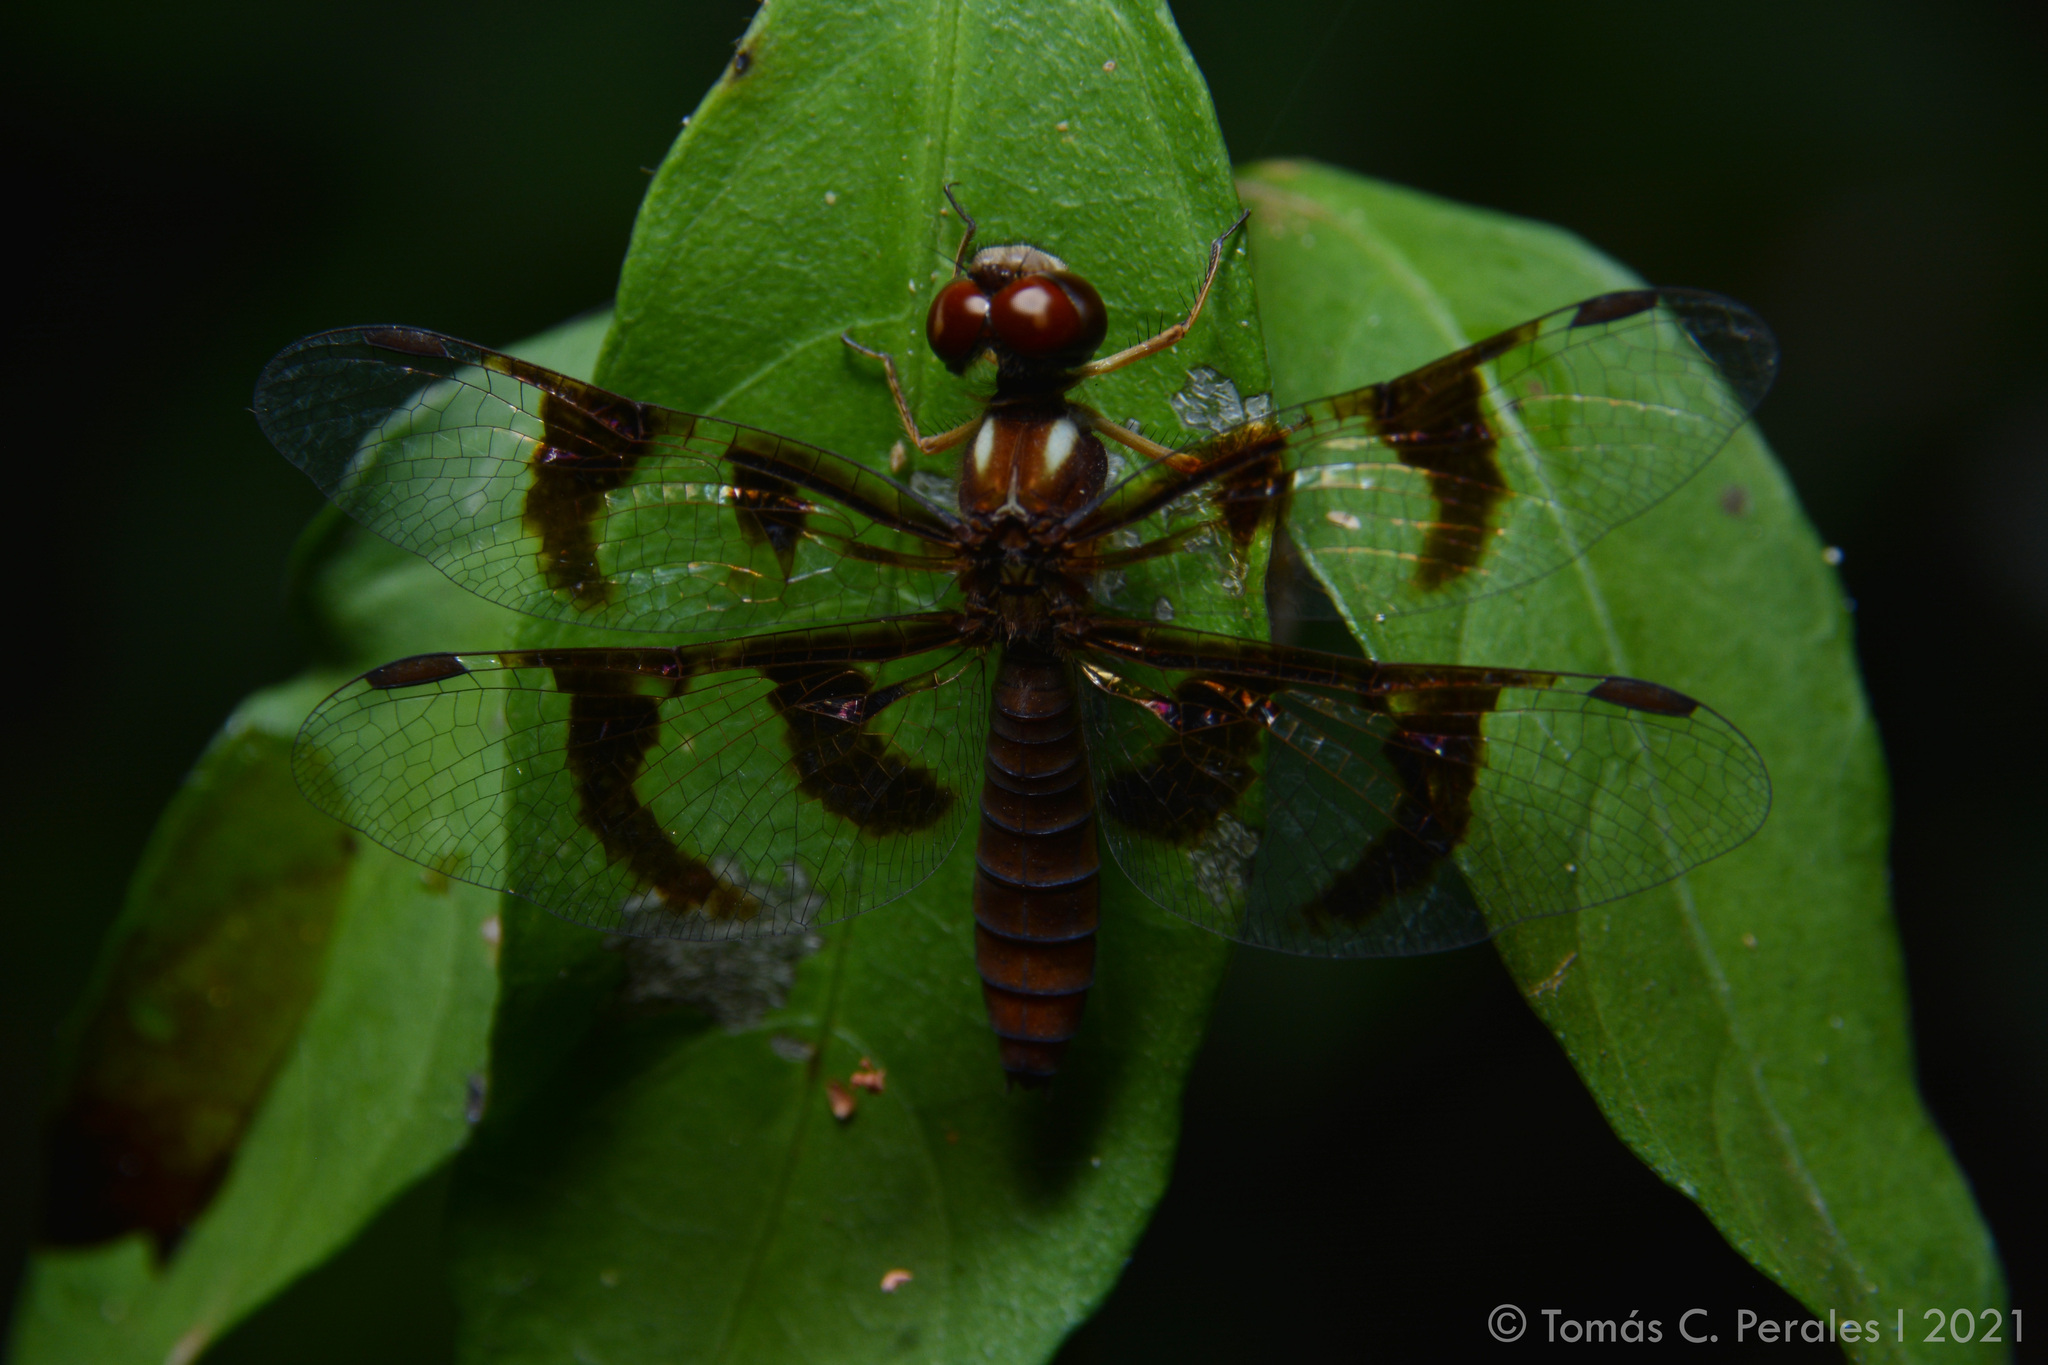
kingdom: Animalia
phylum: Arthropoda
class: Insecta
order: Odonata
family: Libellulidae
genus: Perithemis
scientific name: Perithemis tenera
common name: Eastern amberwing
